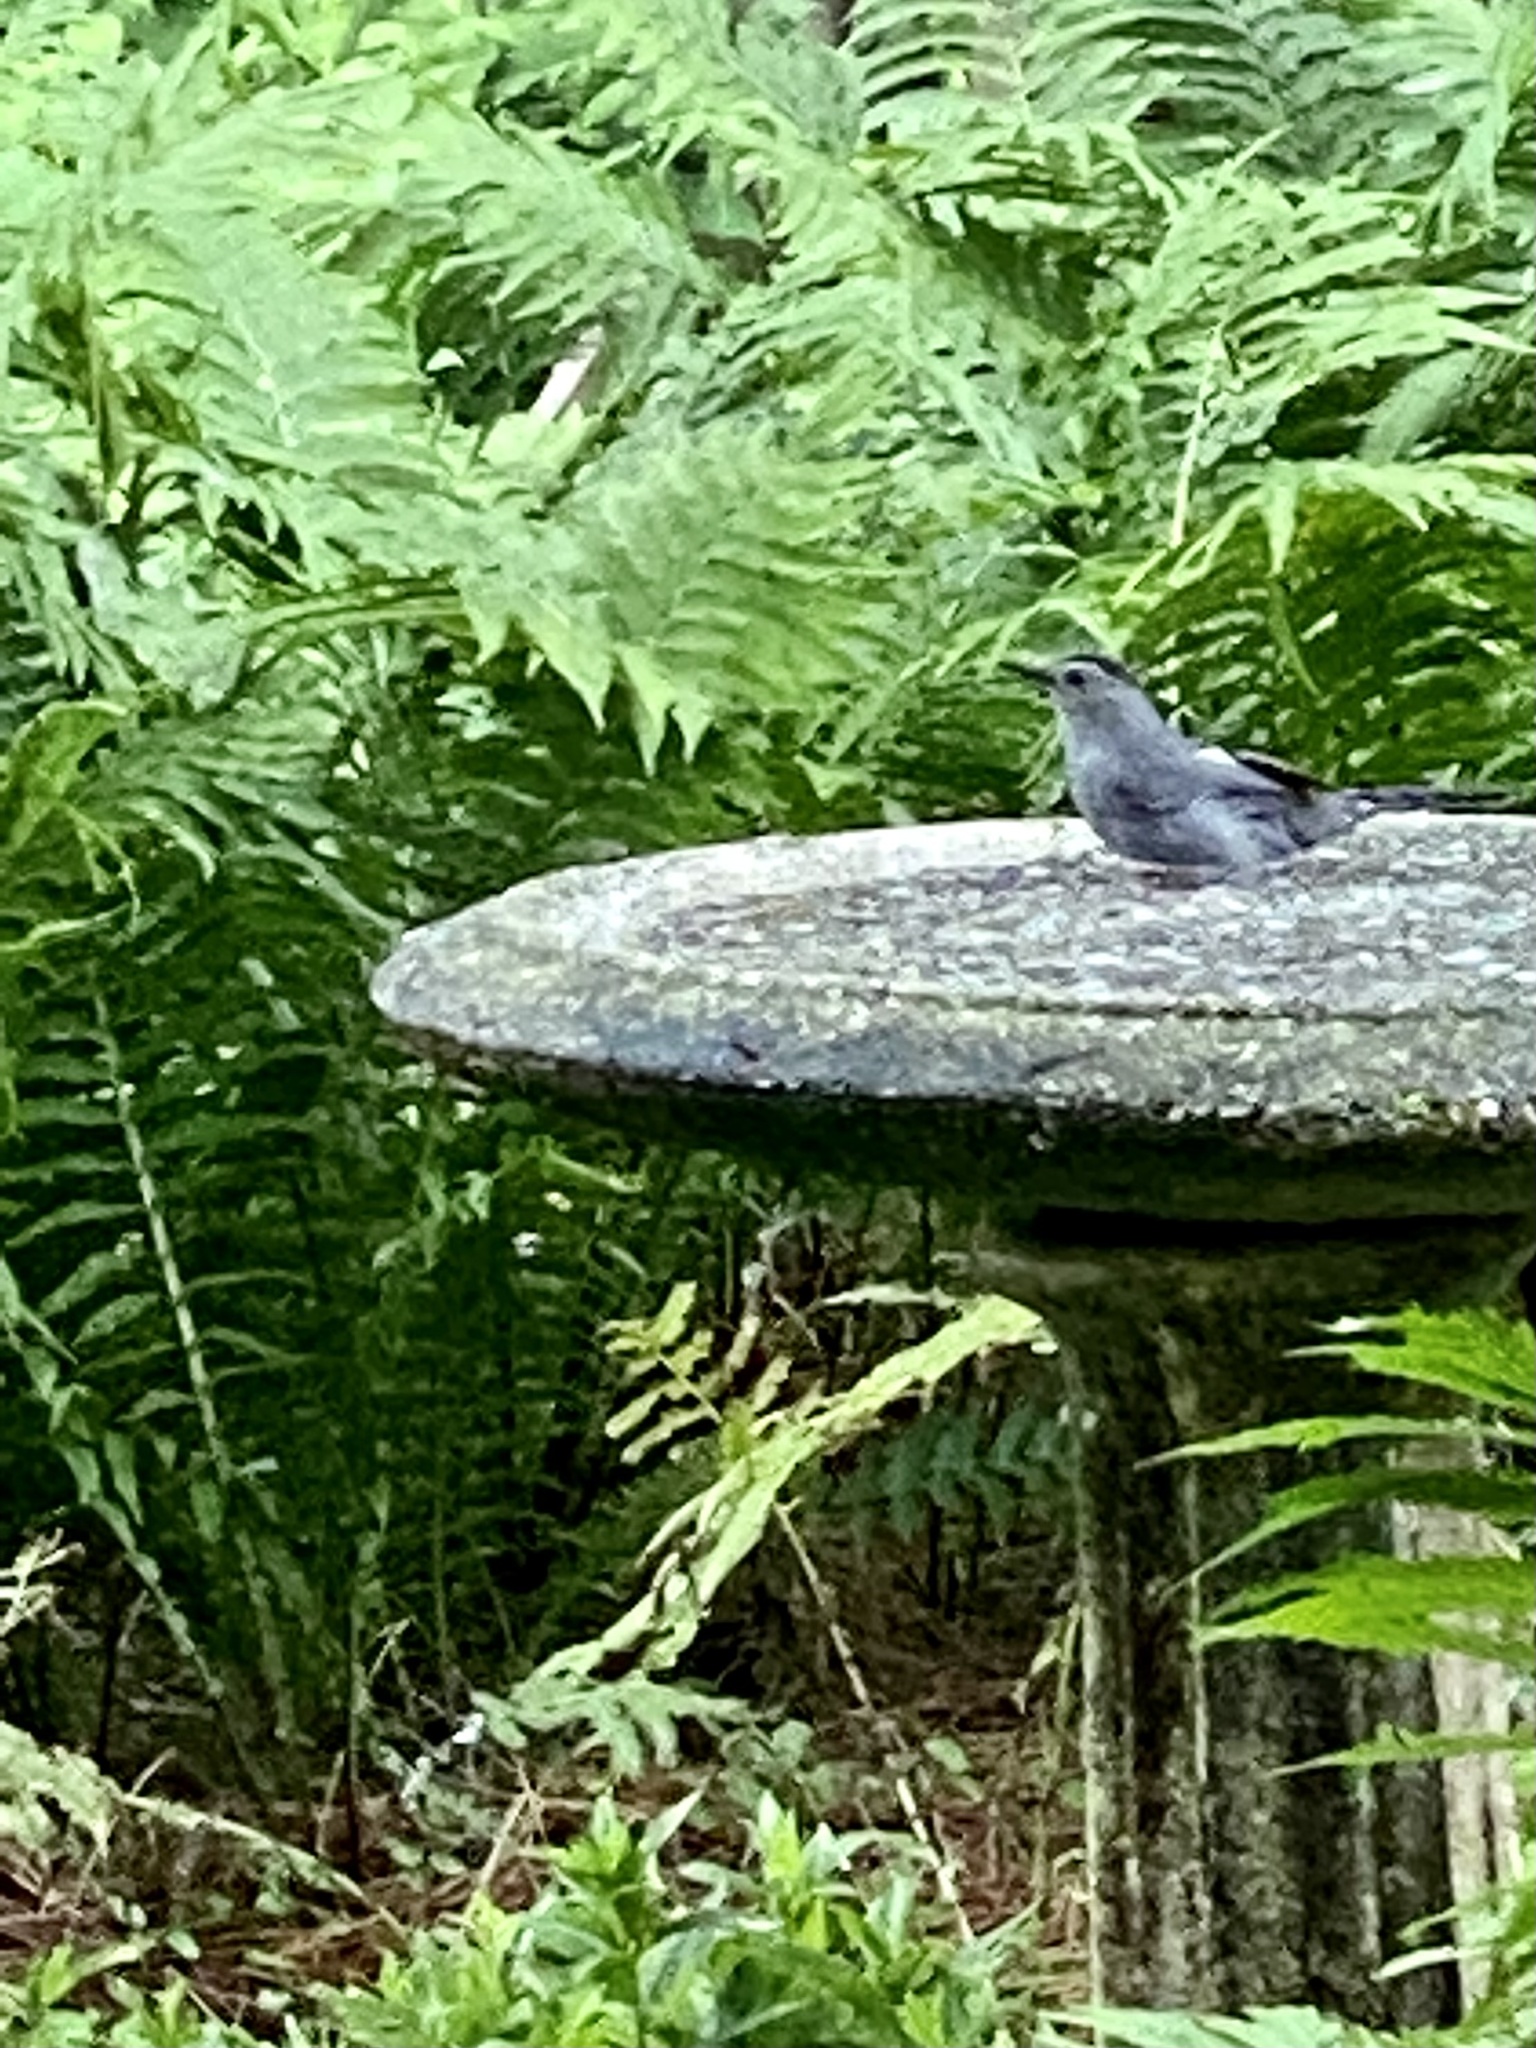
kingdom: Animalia
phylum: Chordata
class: Aves
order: Passeriformes
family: Mimidae
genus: Dumetella
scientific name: Dumetella carolinensis
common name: Gray catbird
